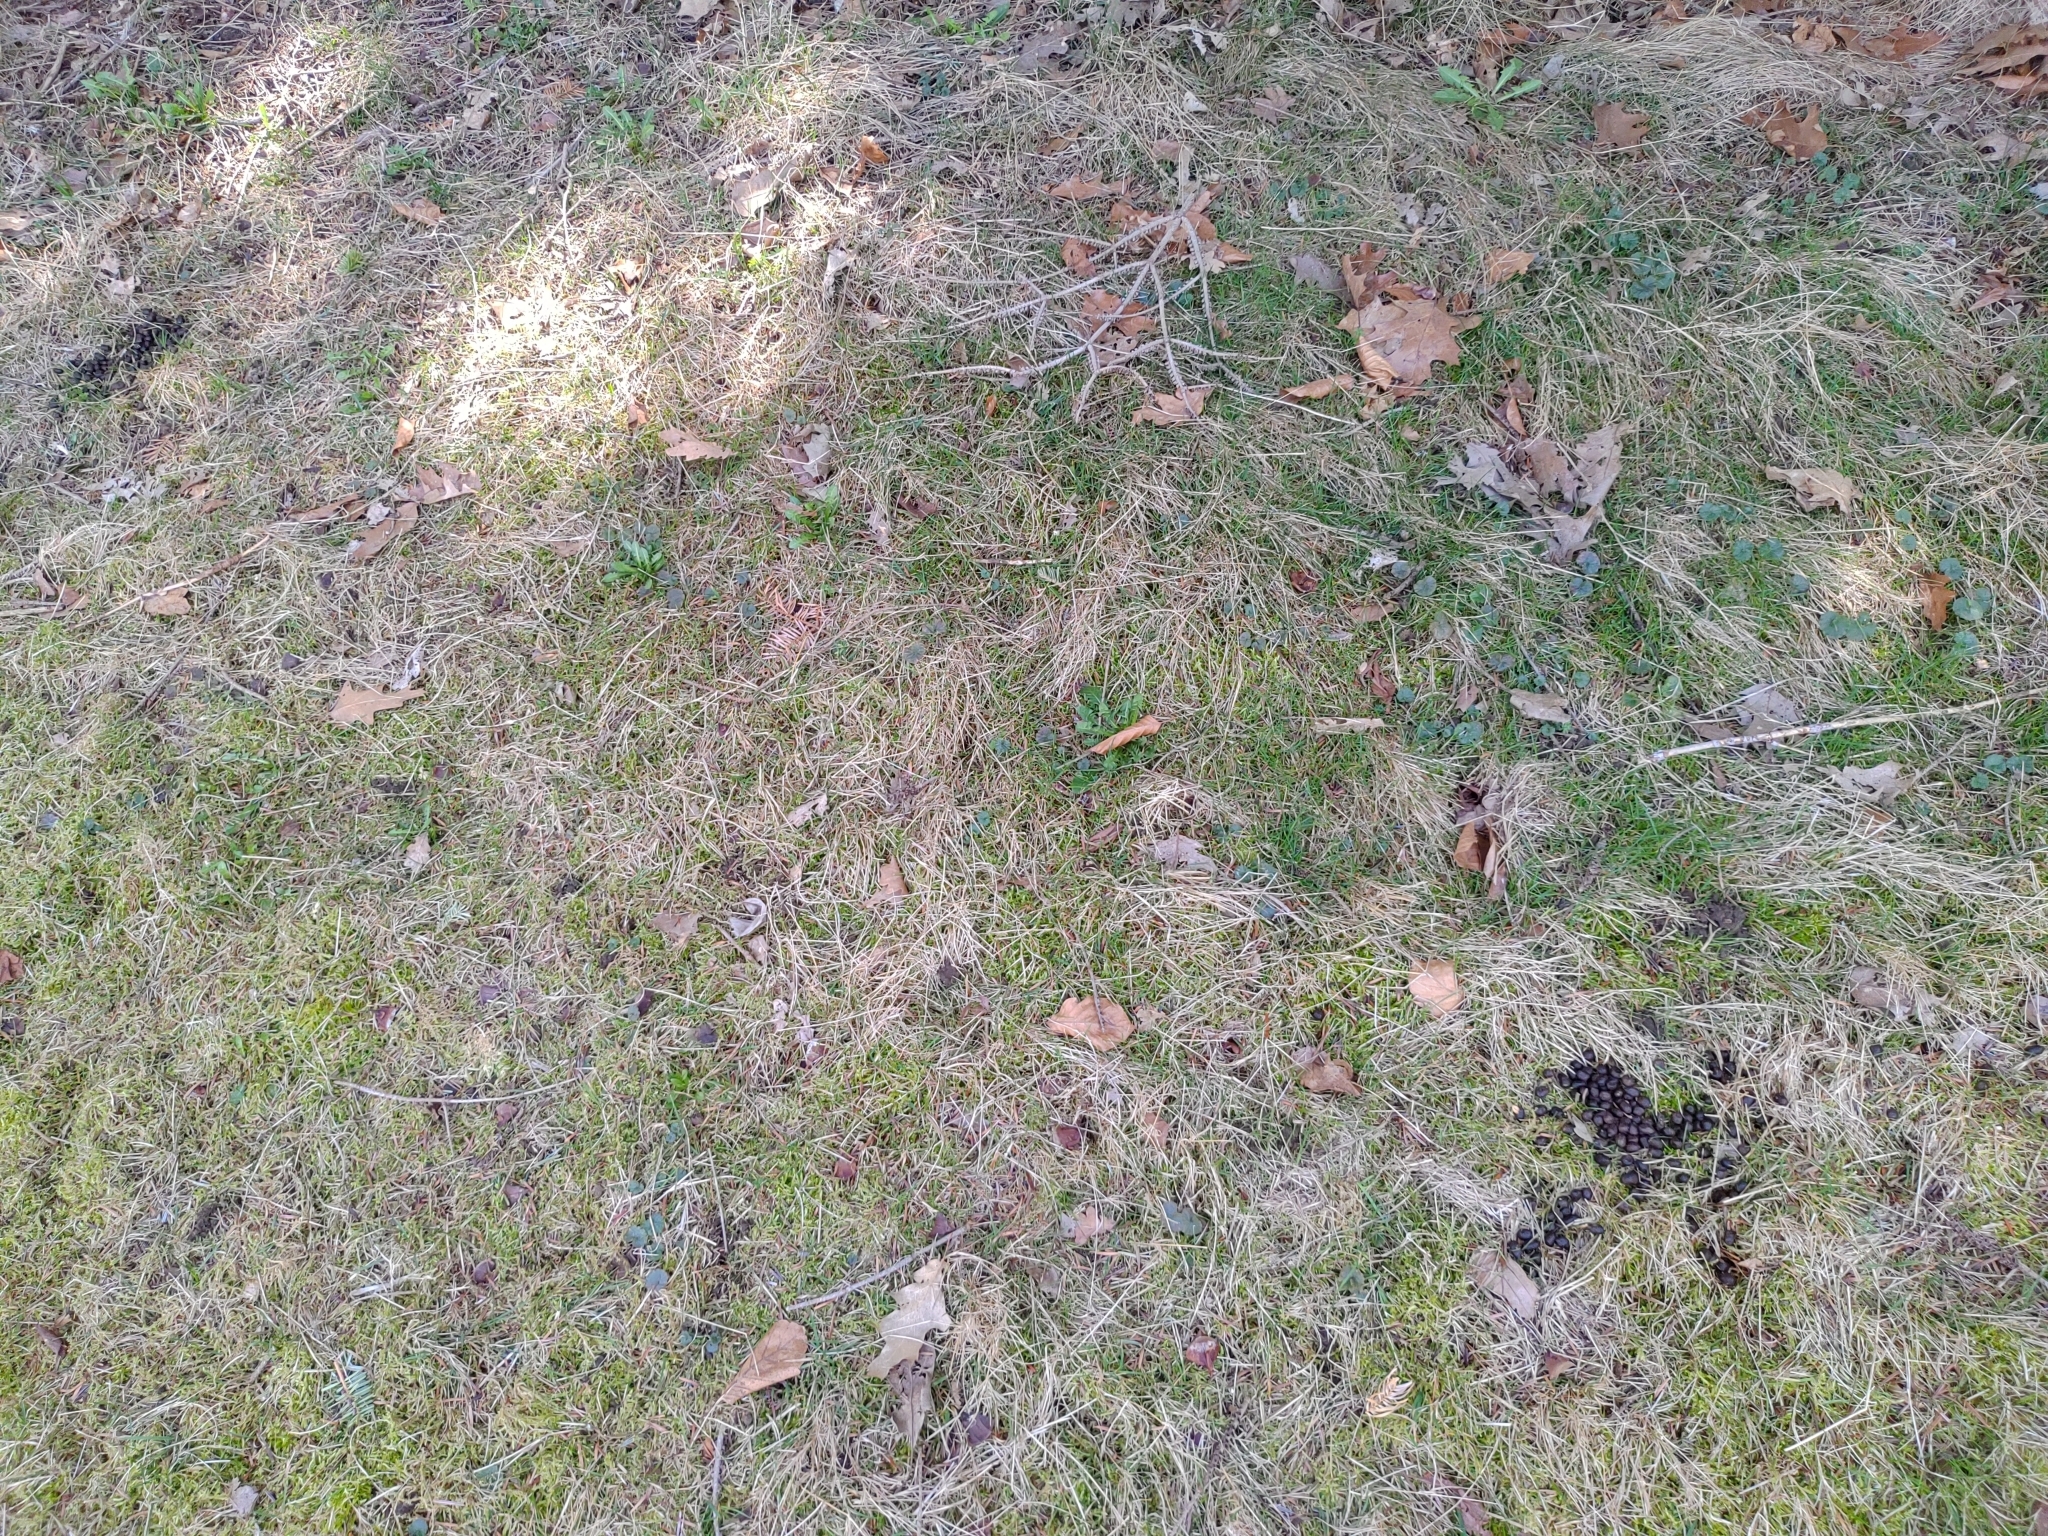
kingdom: Animalia
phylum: Chordata
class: Mammalia
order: Artiodactyla
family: Cervidae
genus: Odocoileus
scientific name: Odocoileus virginianus
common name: White-tailed deer
